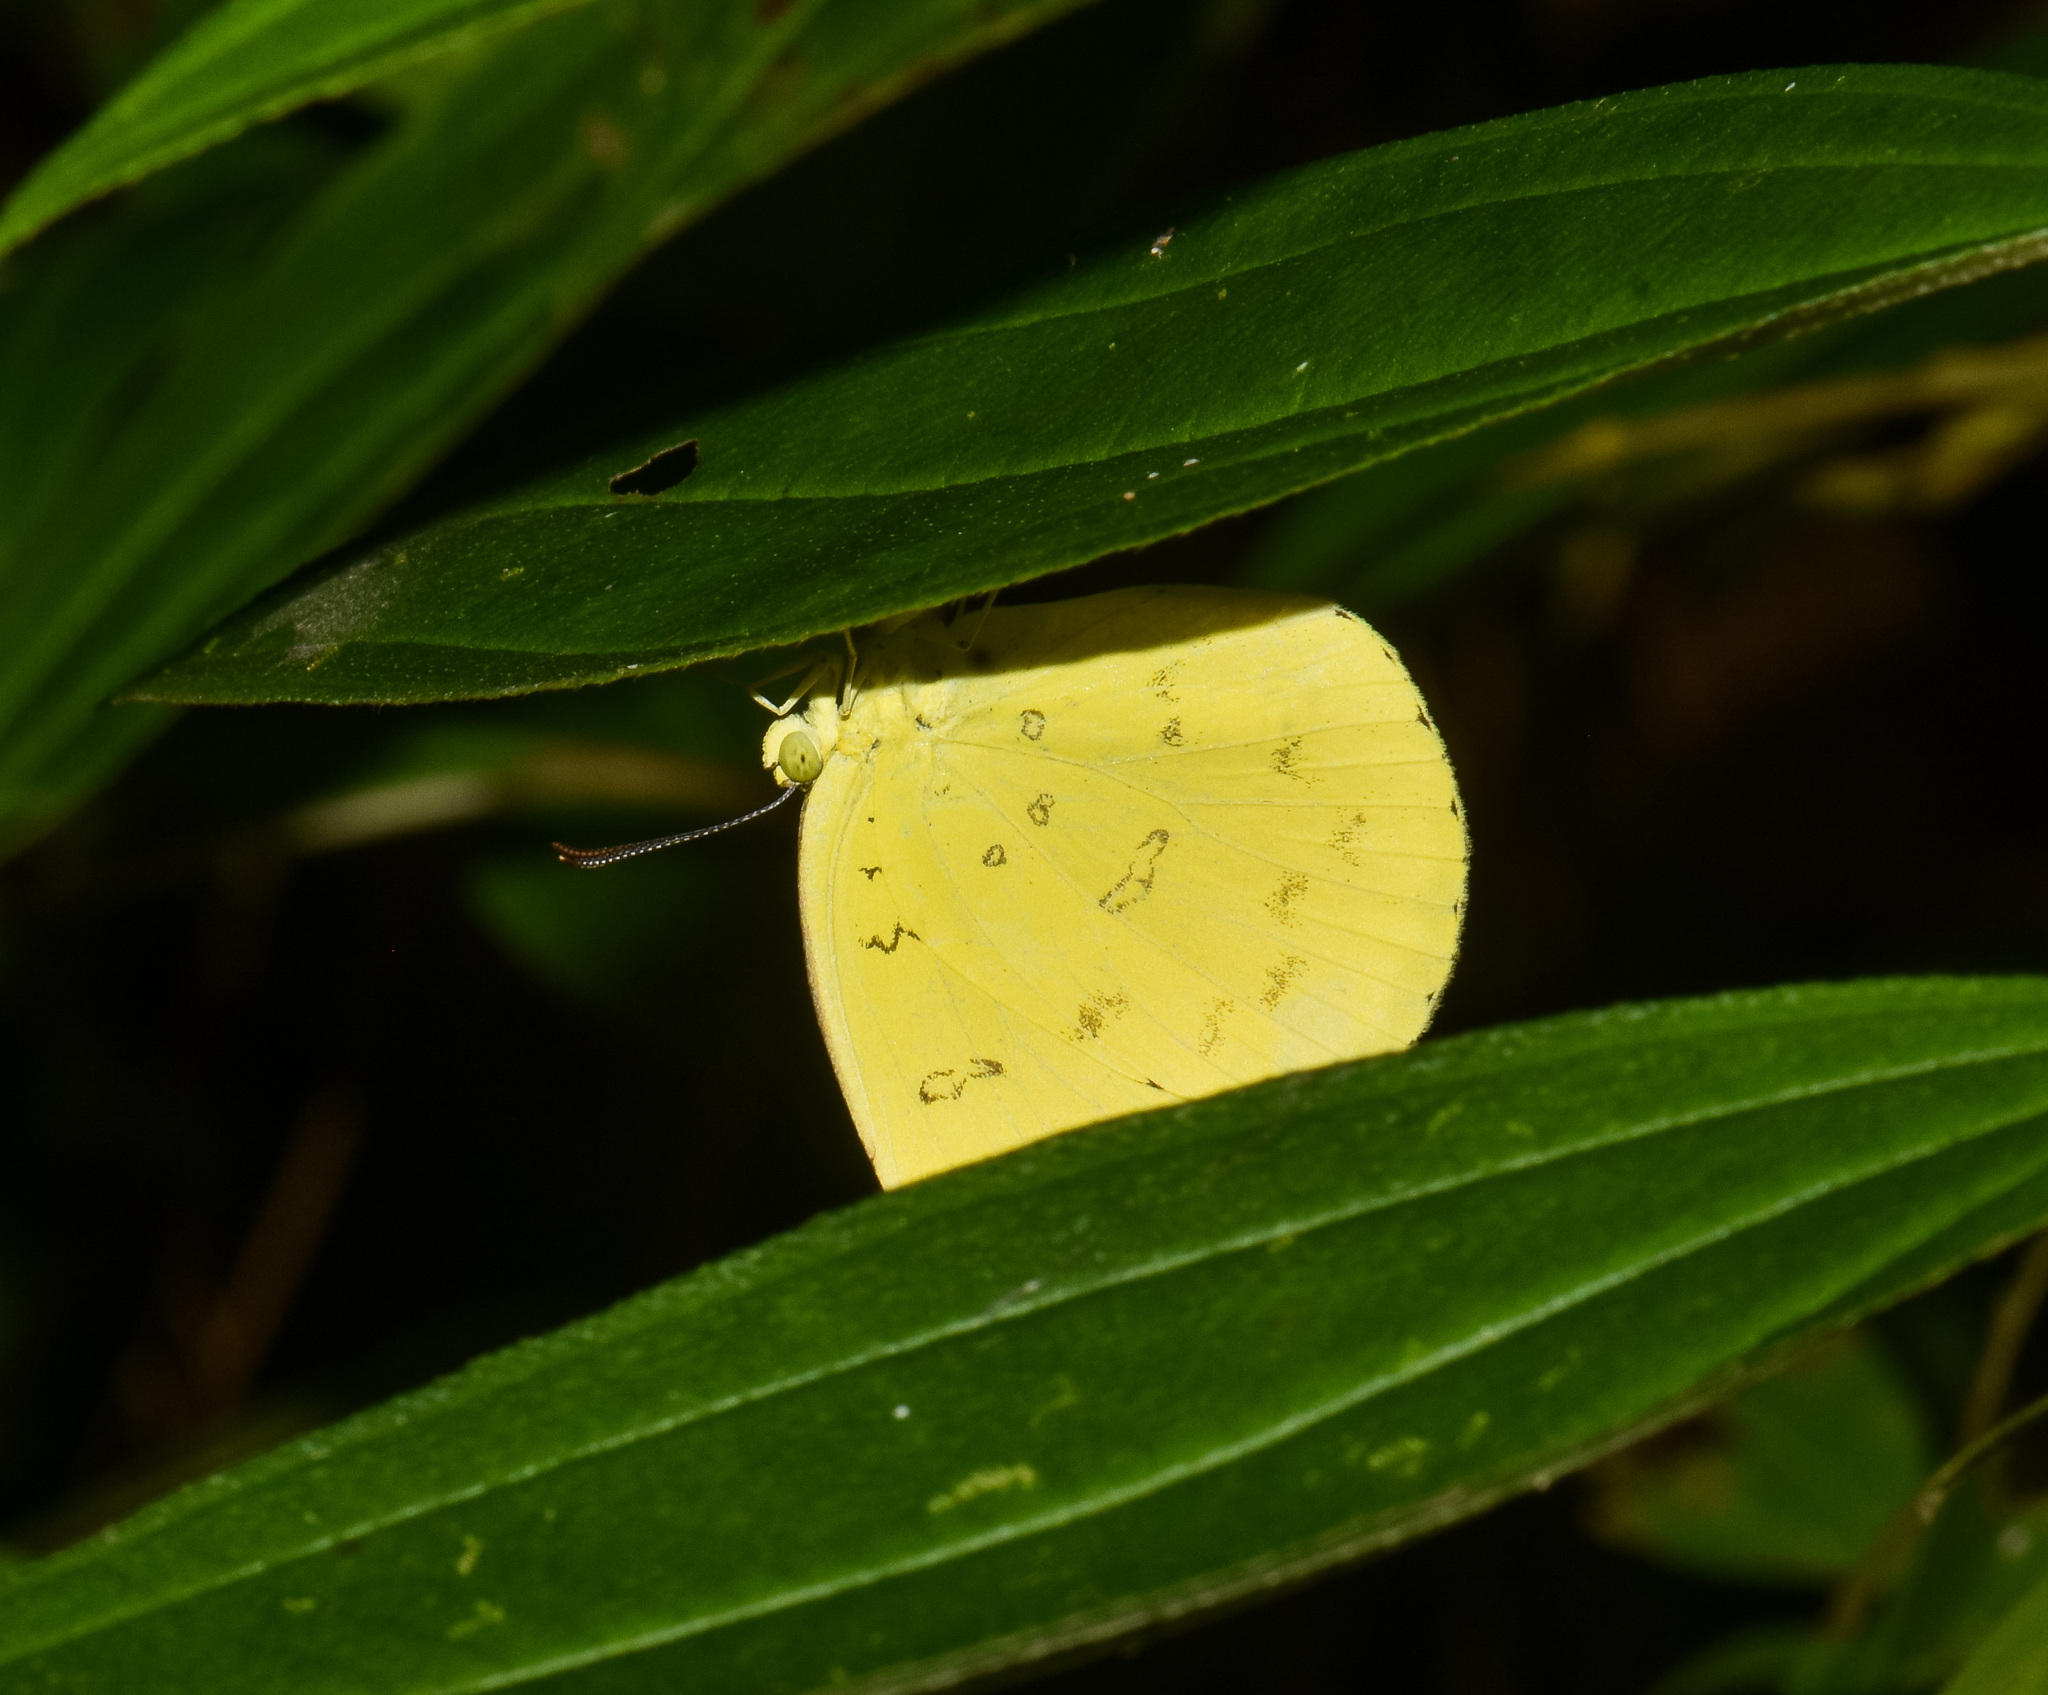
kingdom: Animalia
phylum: Arthropoda
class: Insecta
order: Lepidoptera
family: Pieridae
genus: Eurema
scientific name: Eurema blanda
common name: Three-spot grass yellow
